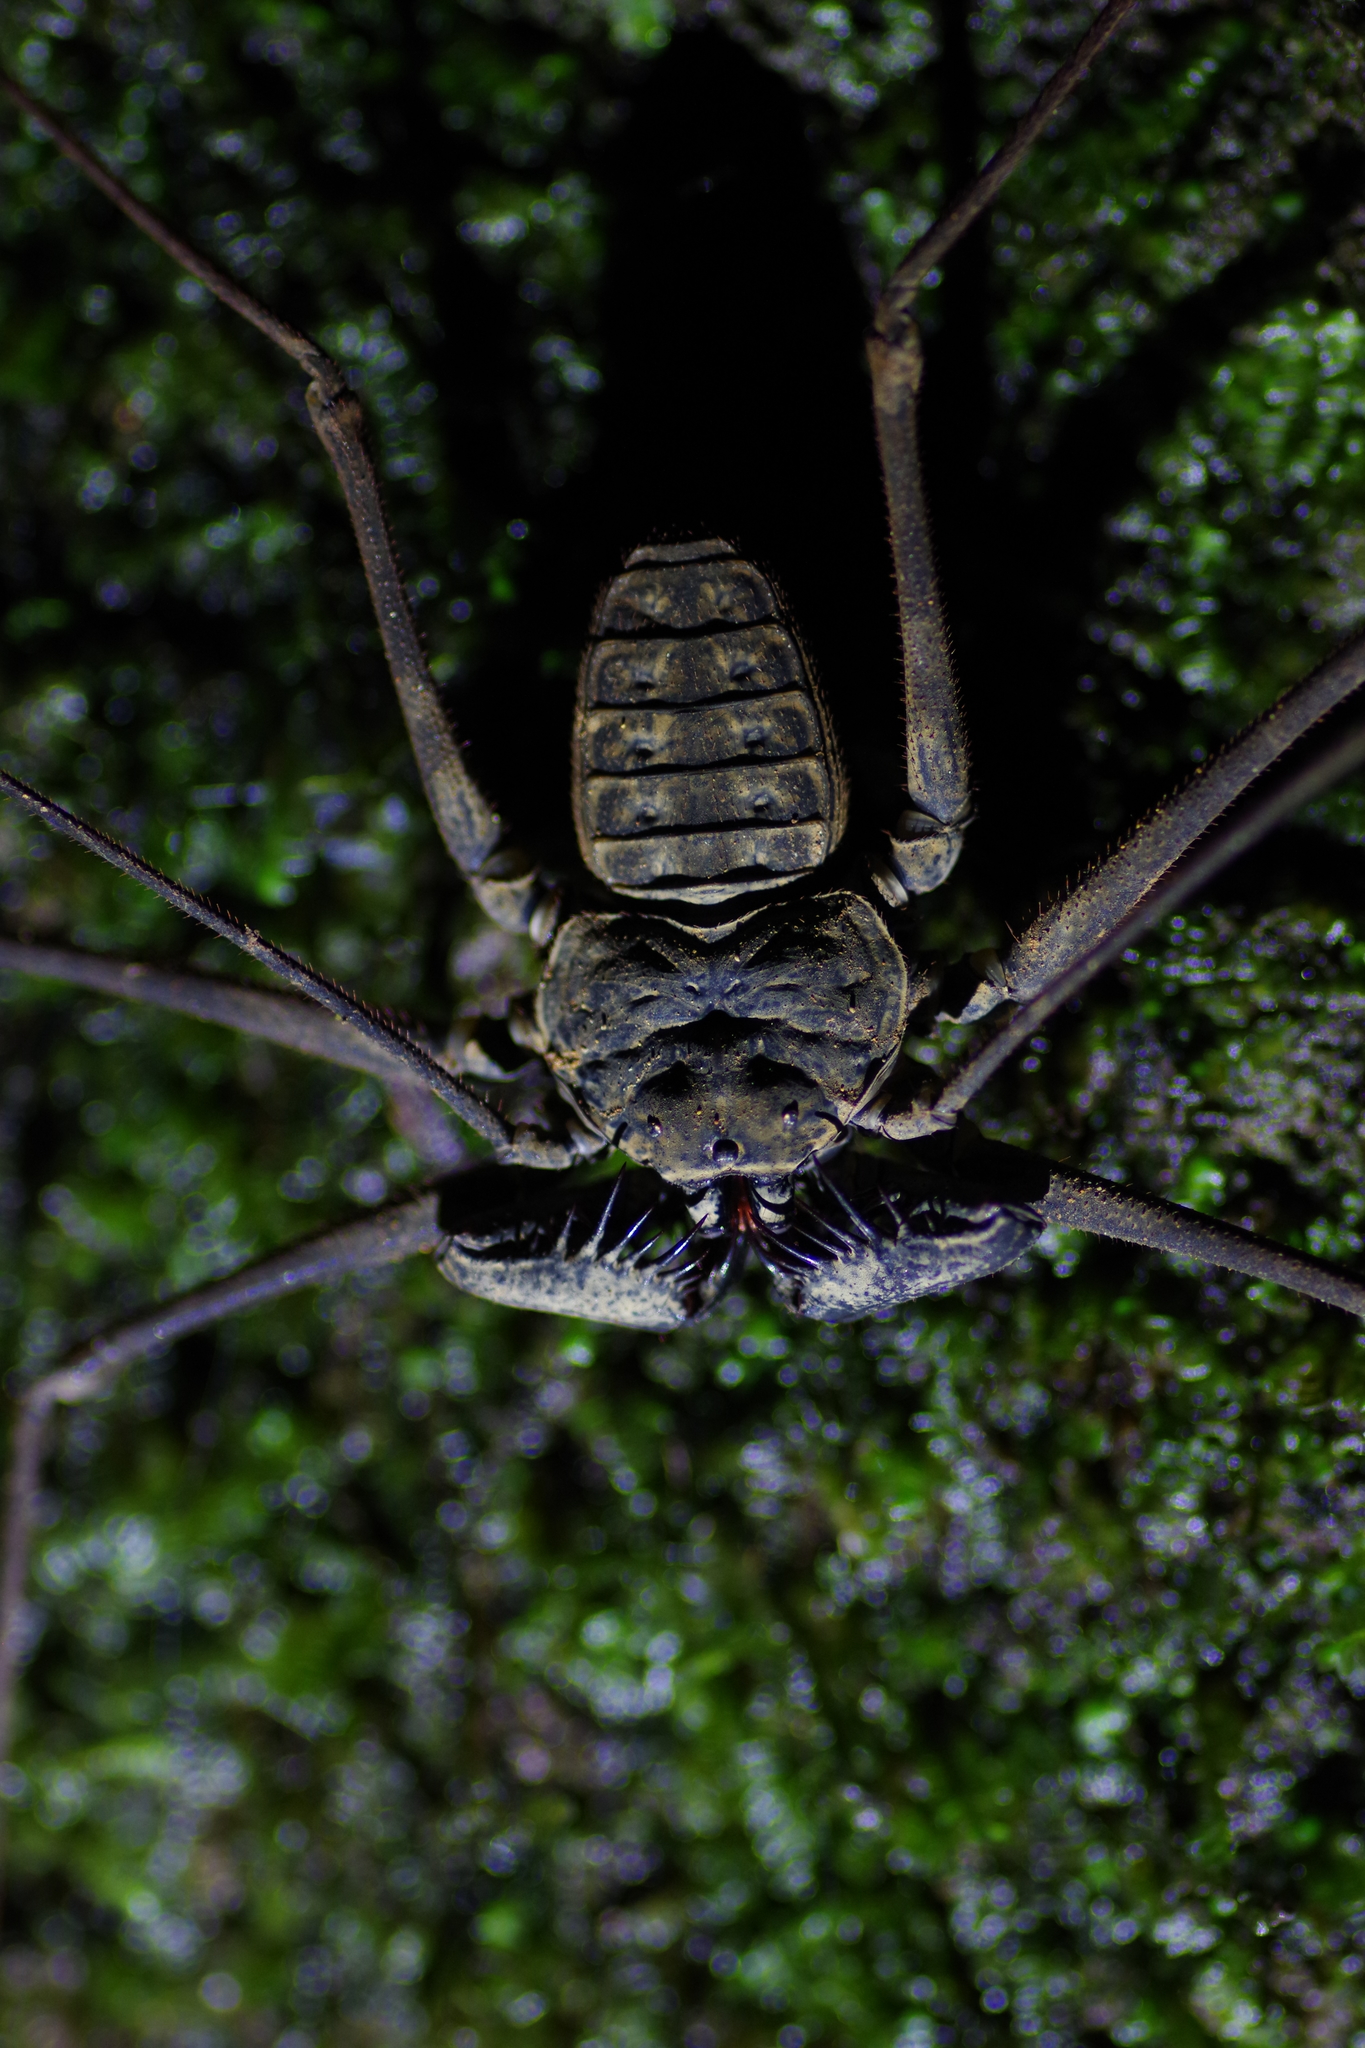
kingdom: Animalia
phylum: Arthropoda
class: Arachnida
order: Amblypygi
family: Phrynidae
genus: Paraphrynus
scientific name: Paraphrynus laevifrons
